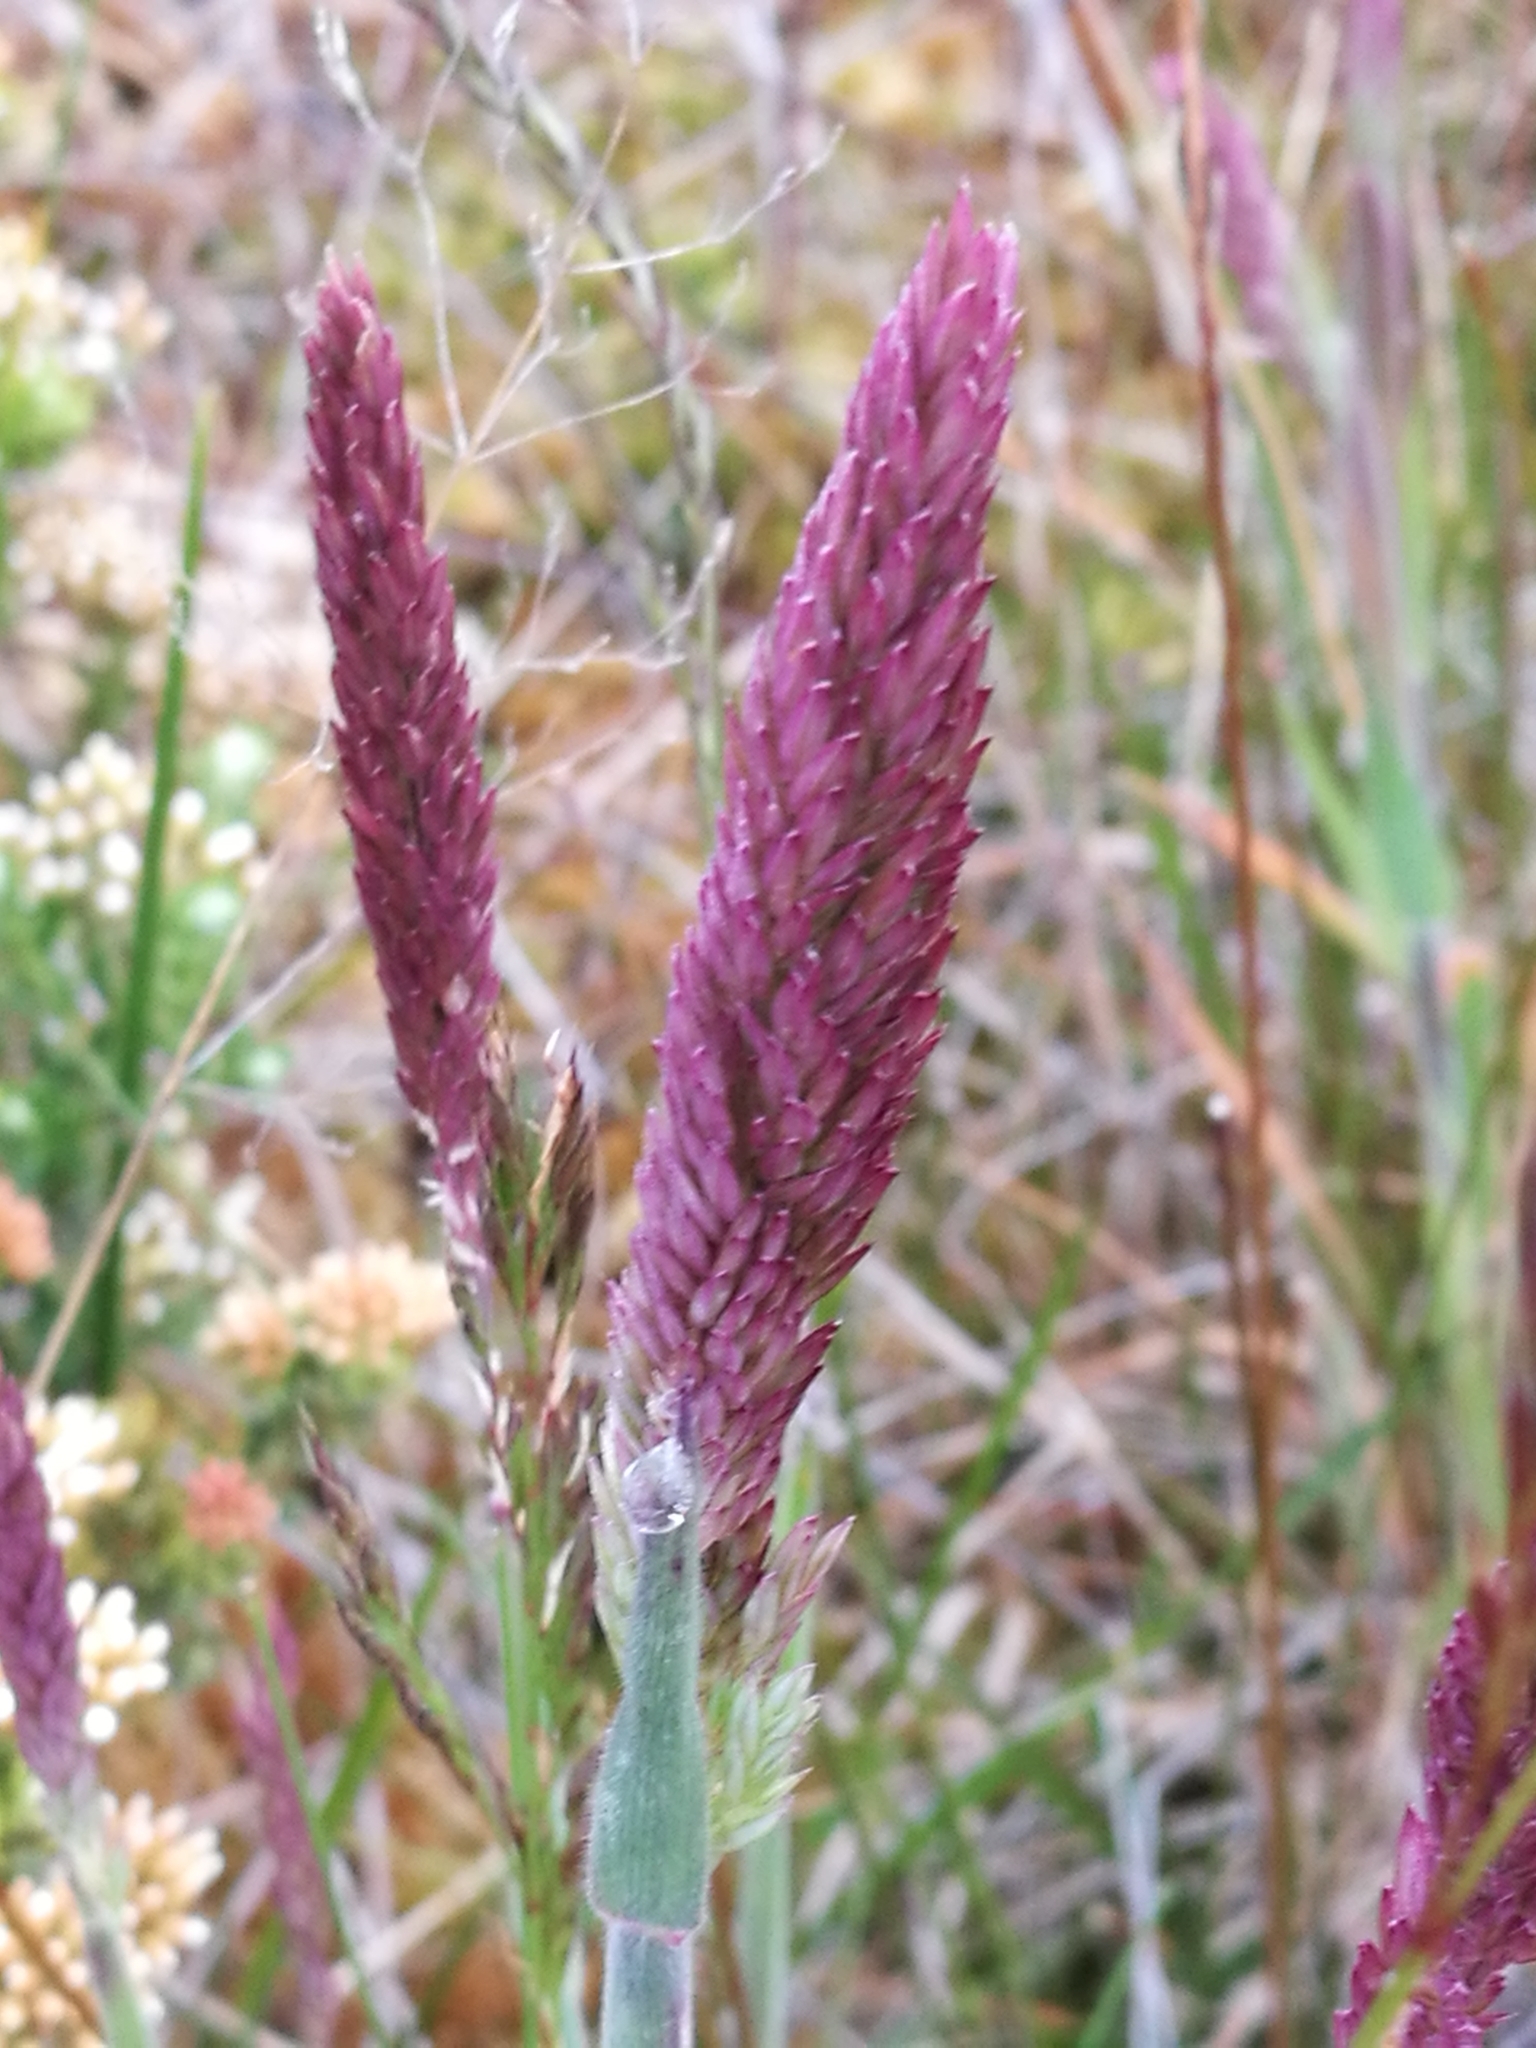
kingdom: Plantae
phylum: Tracheophyta
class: Liliopsida
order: Poales
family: Poaceae
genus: Holcus
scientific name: Holcus lanatus
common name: Yorkshire-fog
